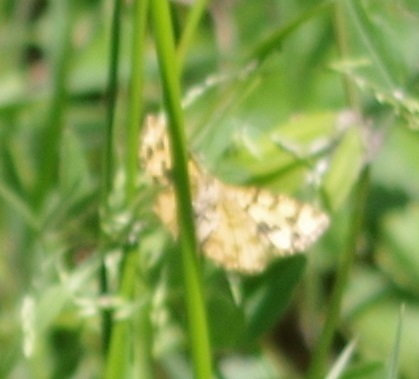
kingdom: Animalia
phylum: Arthropoda
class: Insecta
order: Lepidoptera
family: Geometridae
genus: Pseudopanthera
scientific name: Pseudopanthera macularia
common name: Speckled yellow
